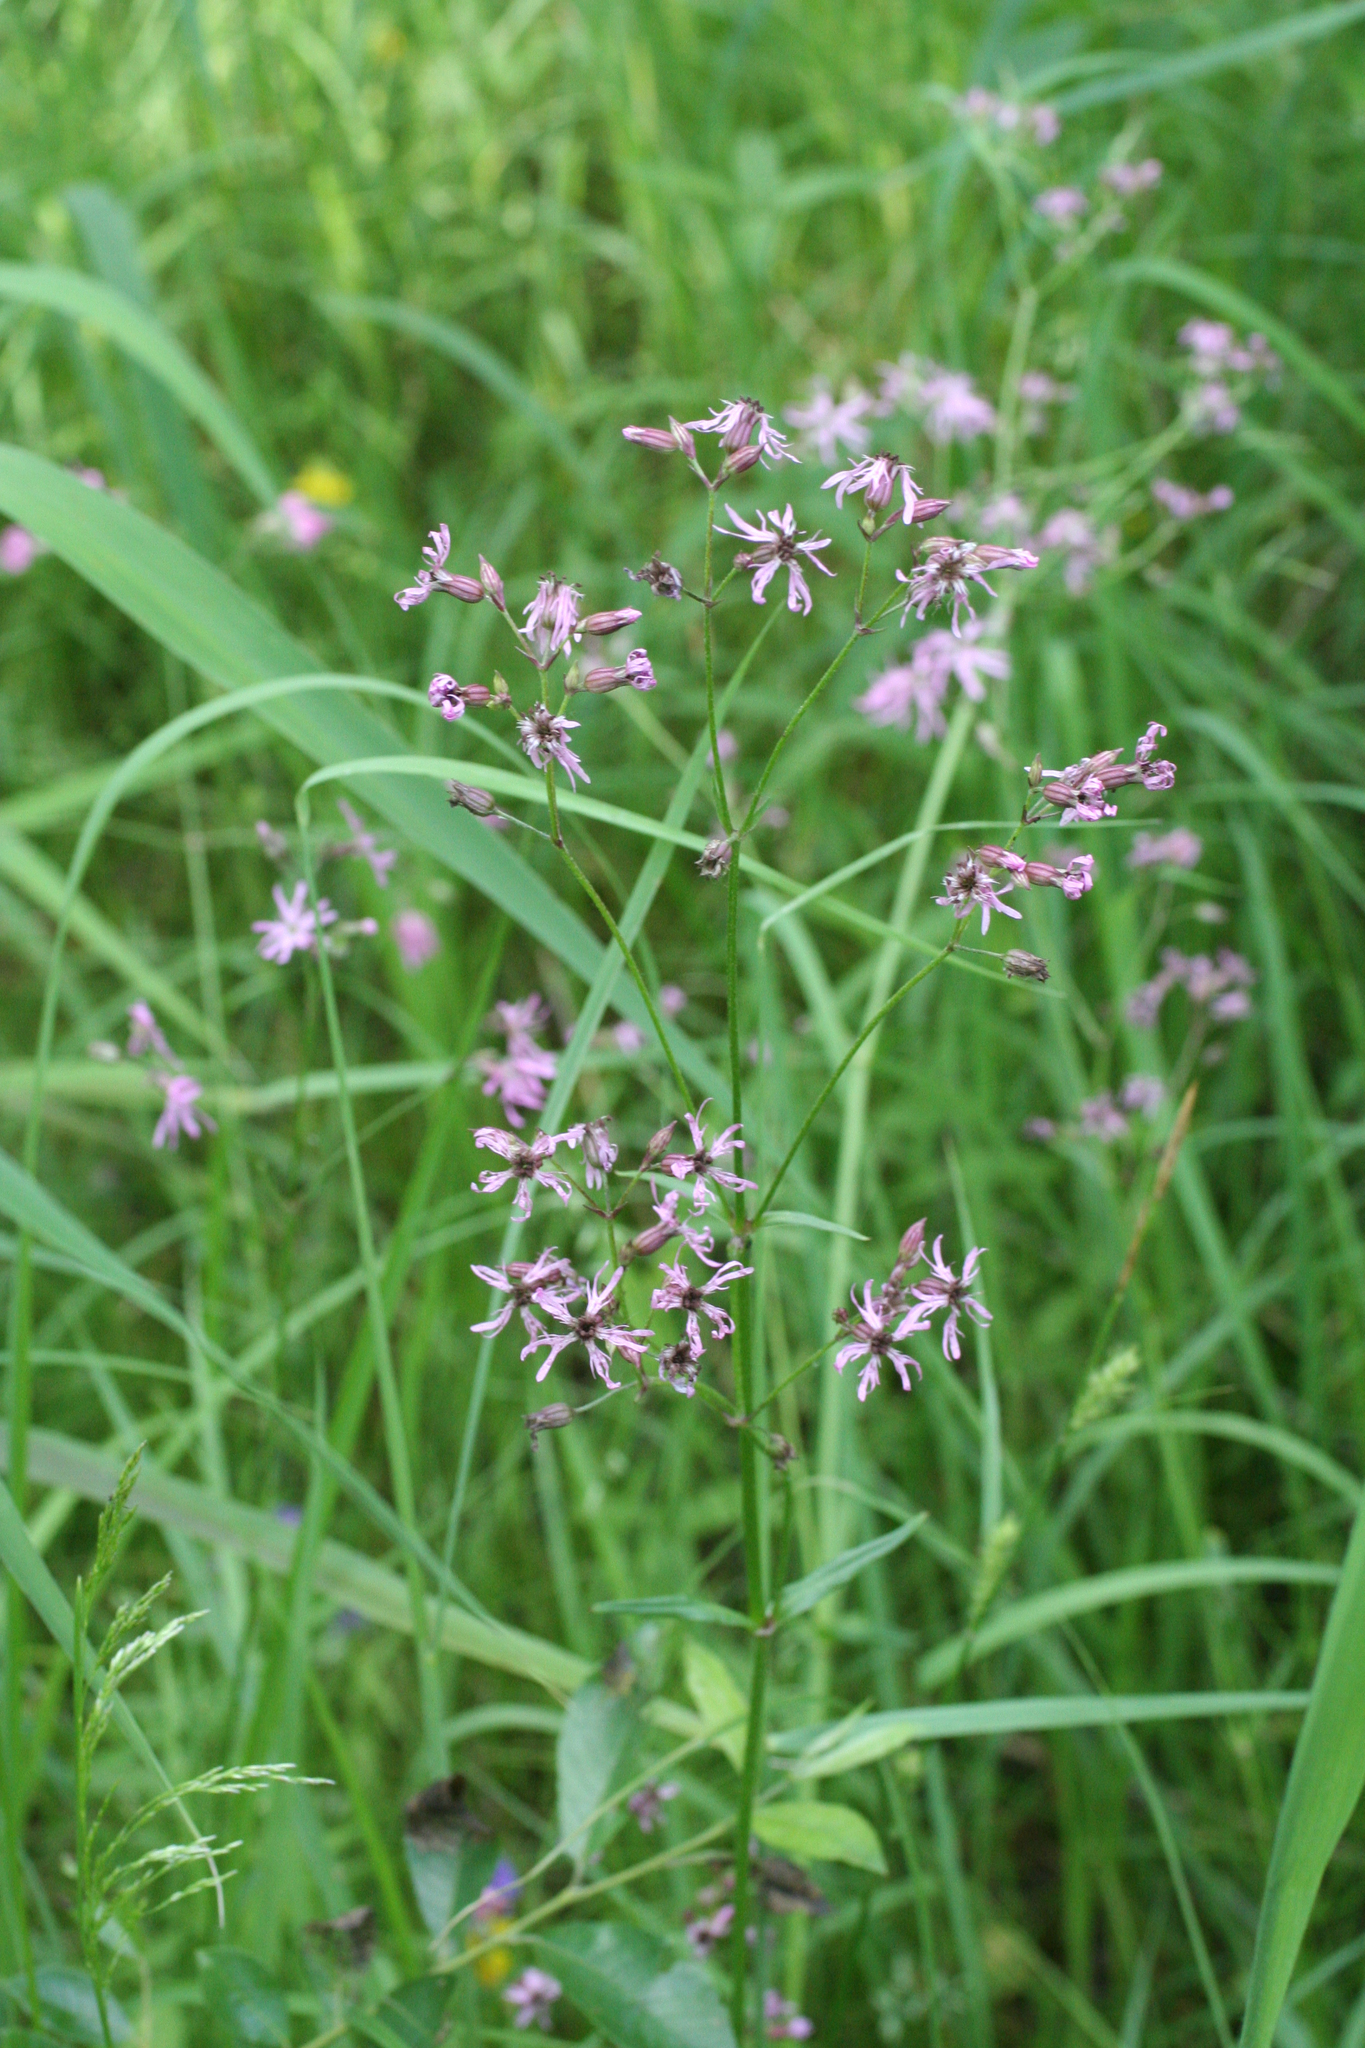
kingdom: Plantae
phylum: Tracheophyta
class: Magnoliopsida
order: Caryophyllales
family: Caryophyllaceae
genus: Silene
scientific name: Silene flos-cuculi
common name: Ragged-robin
